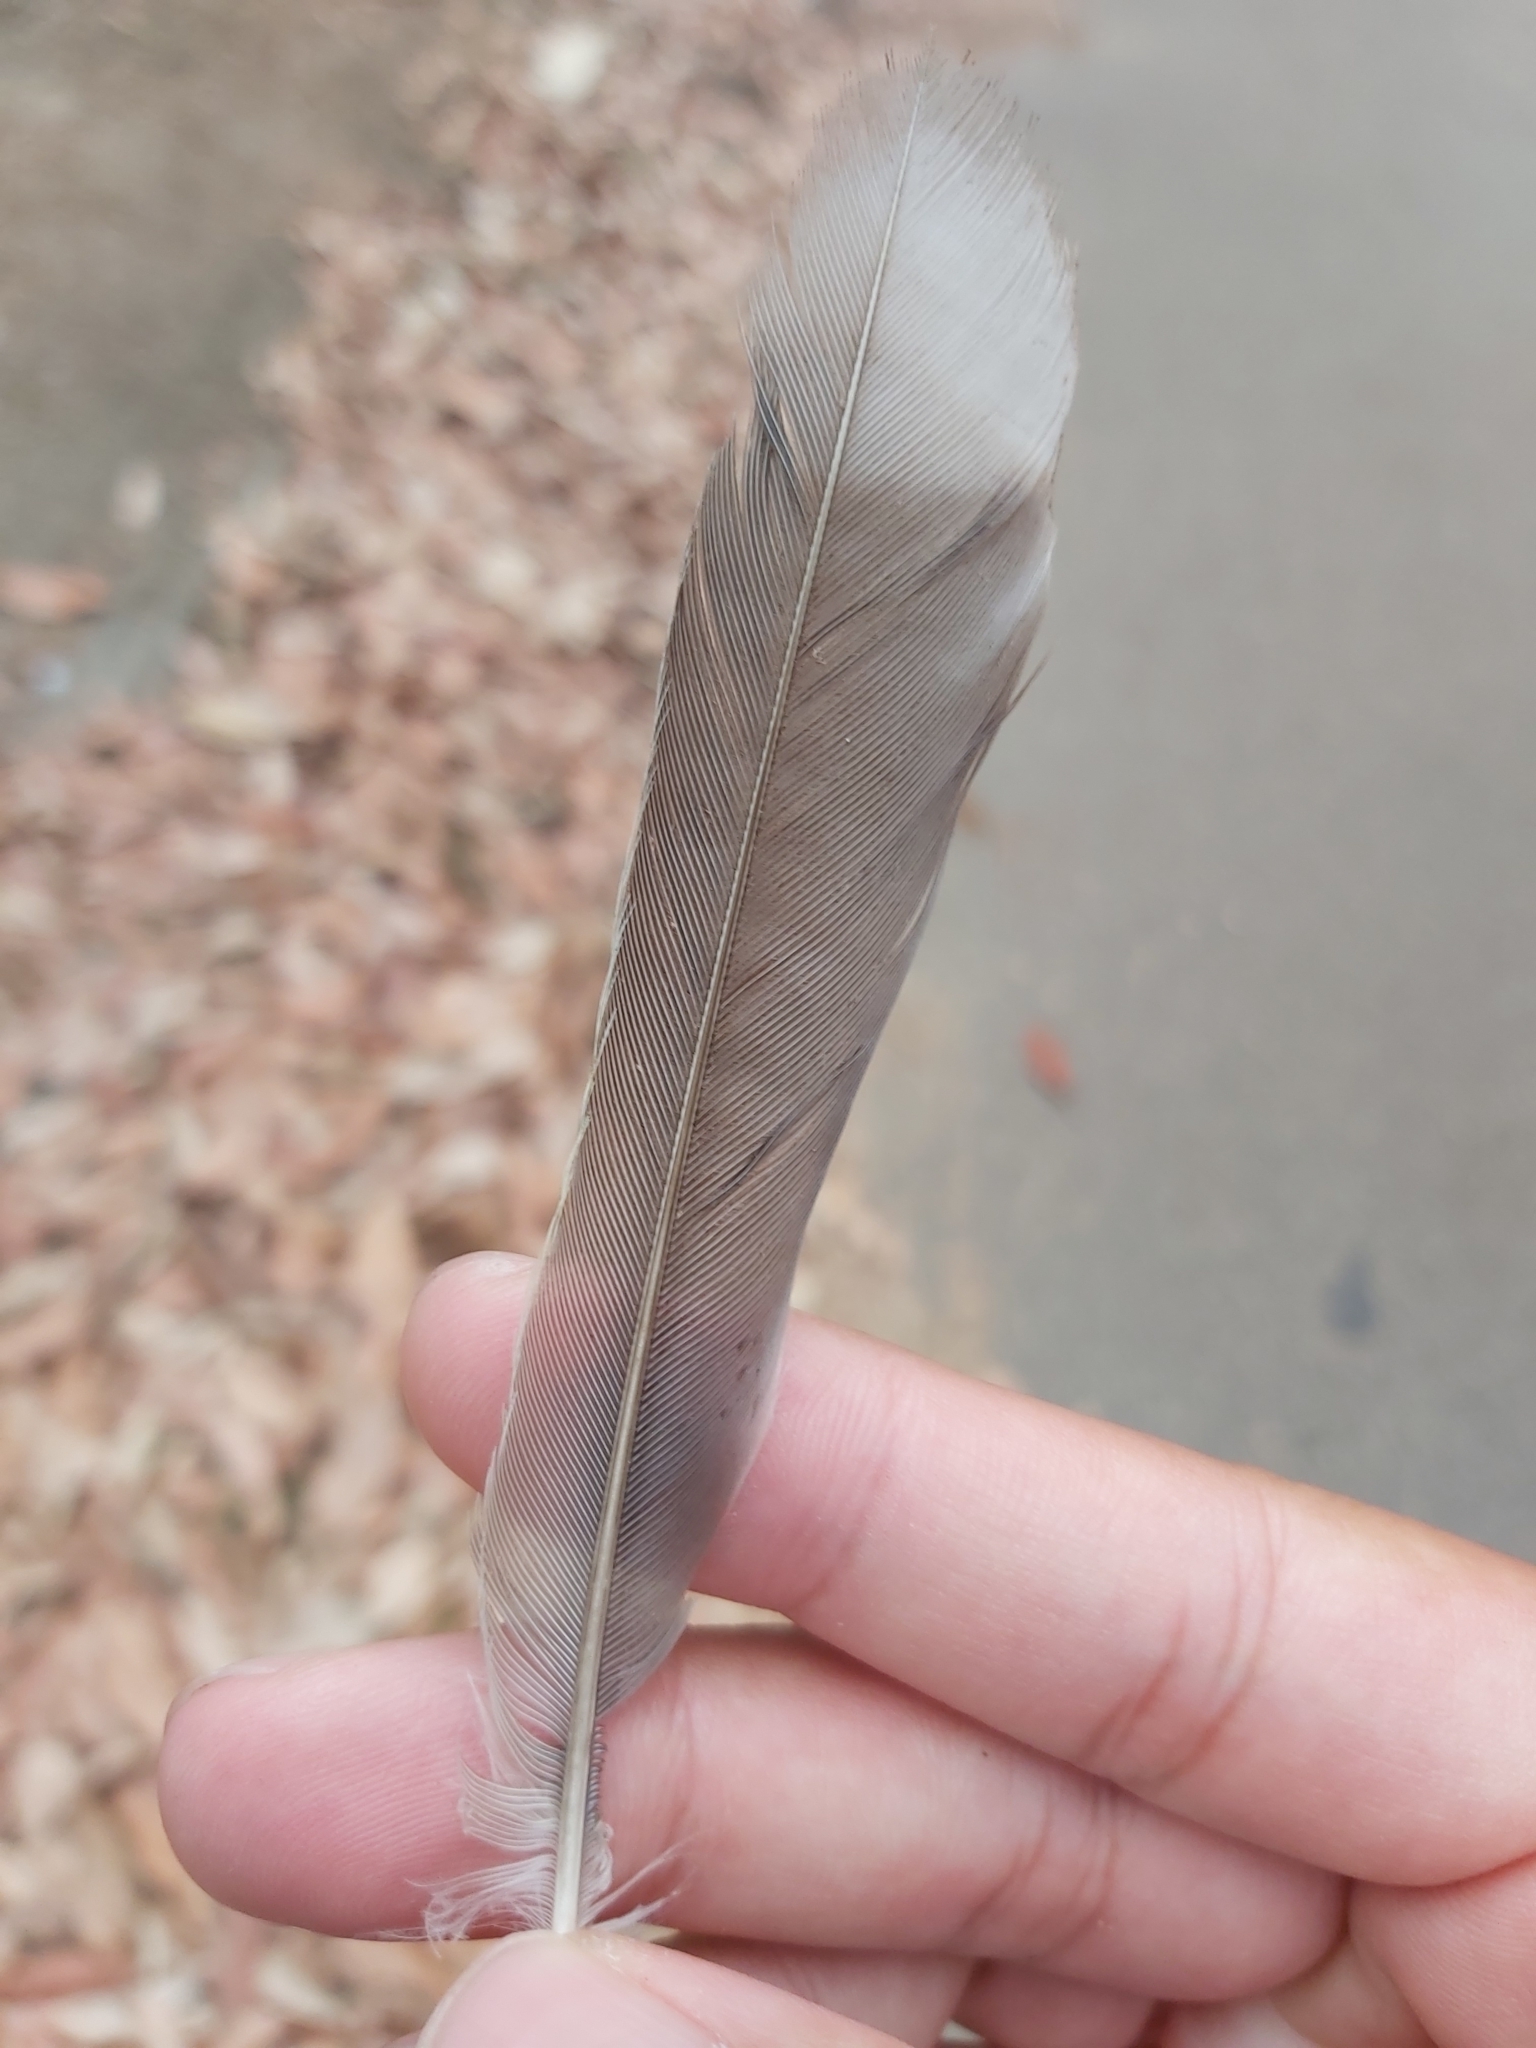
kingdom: Animalia
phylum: Chordata
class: Aves
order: Passeriformes
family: Meliphagidae
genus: Manorina
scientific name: Manorina melanocephala
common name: Noisy miner
